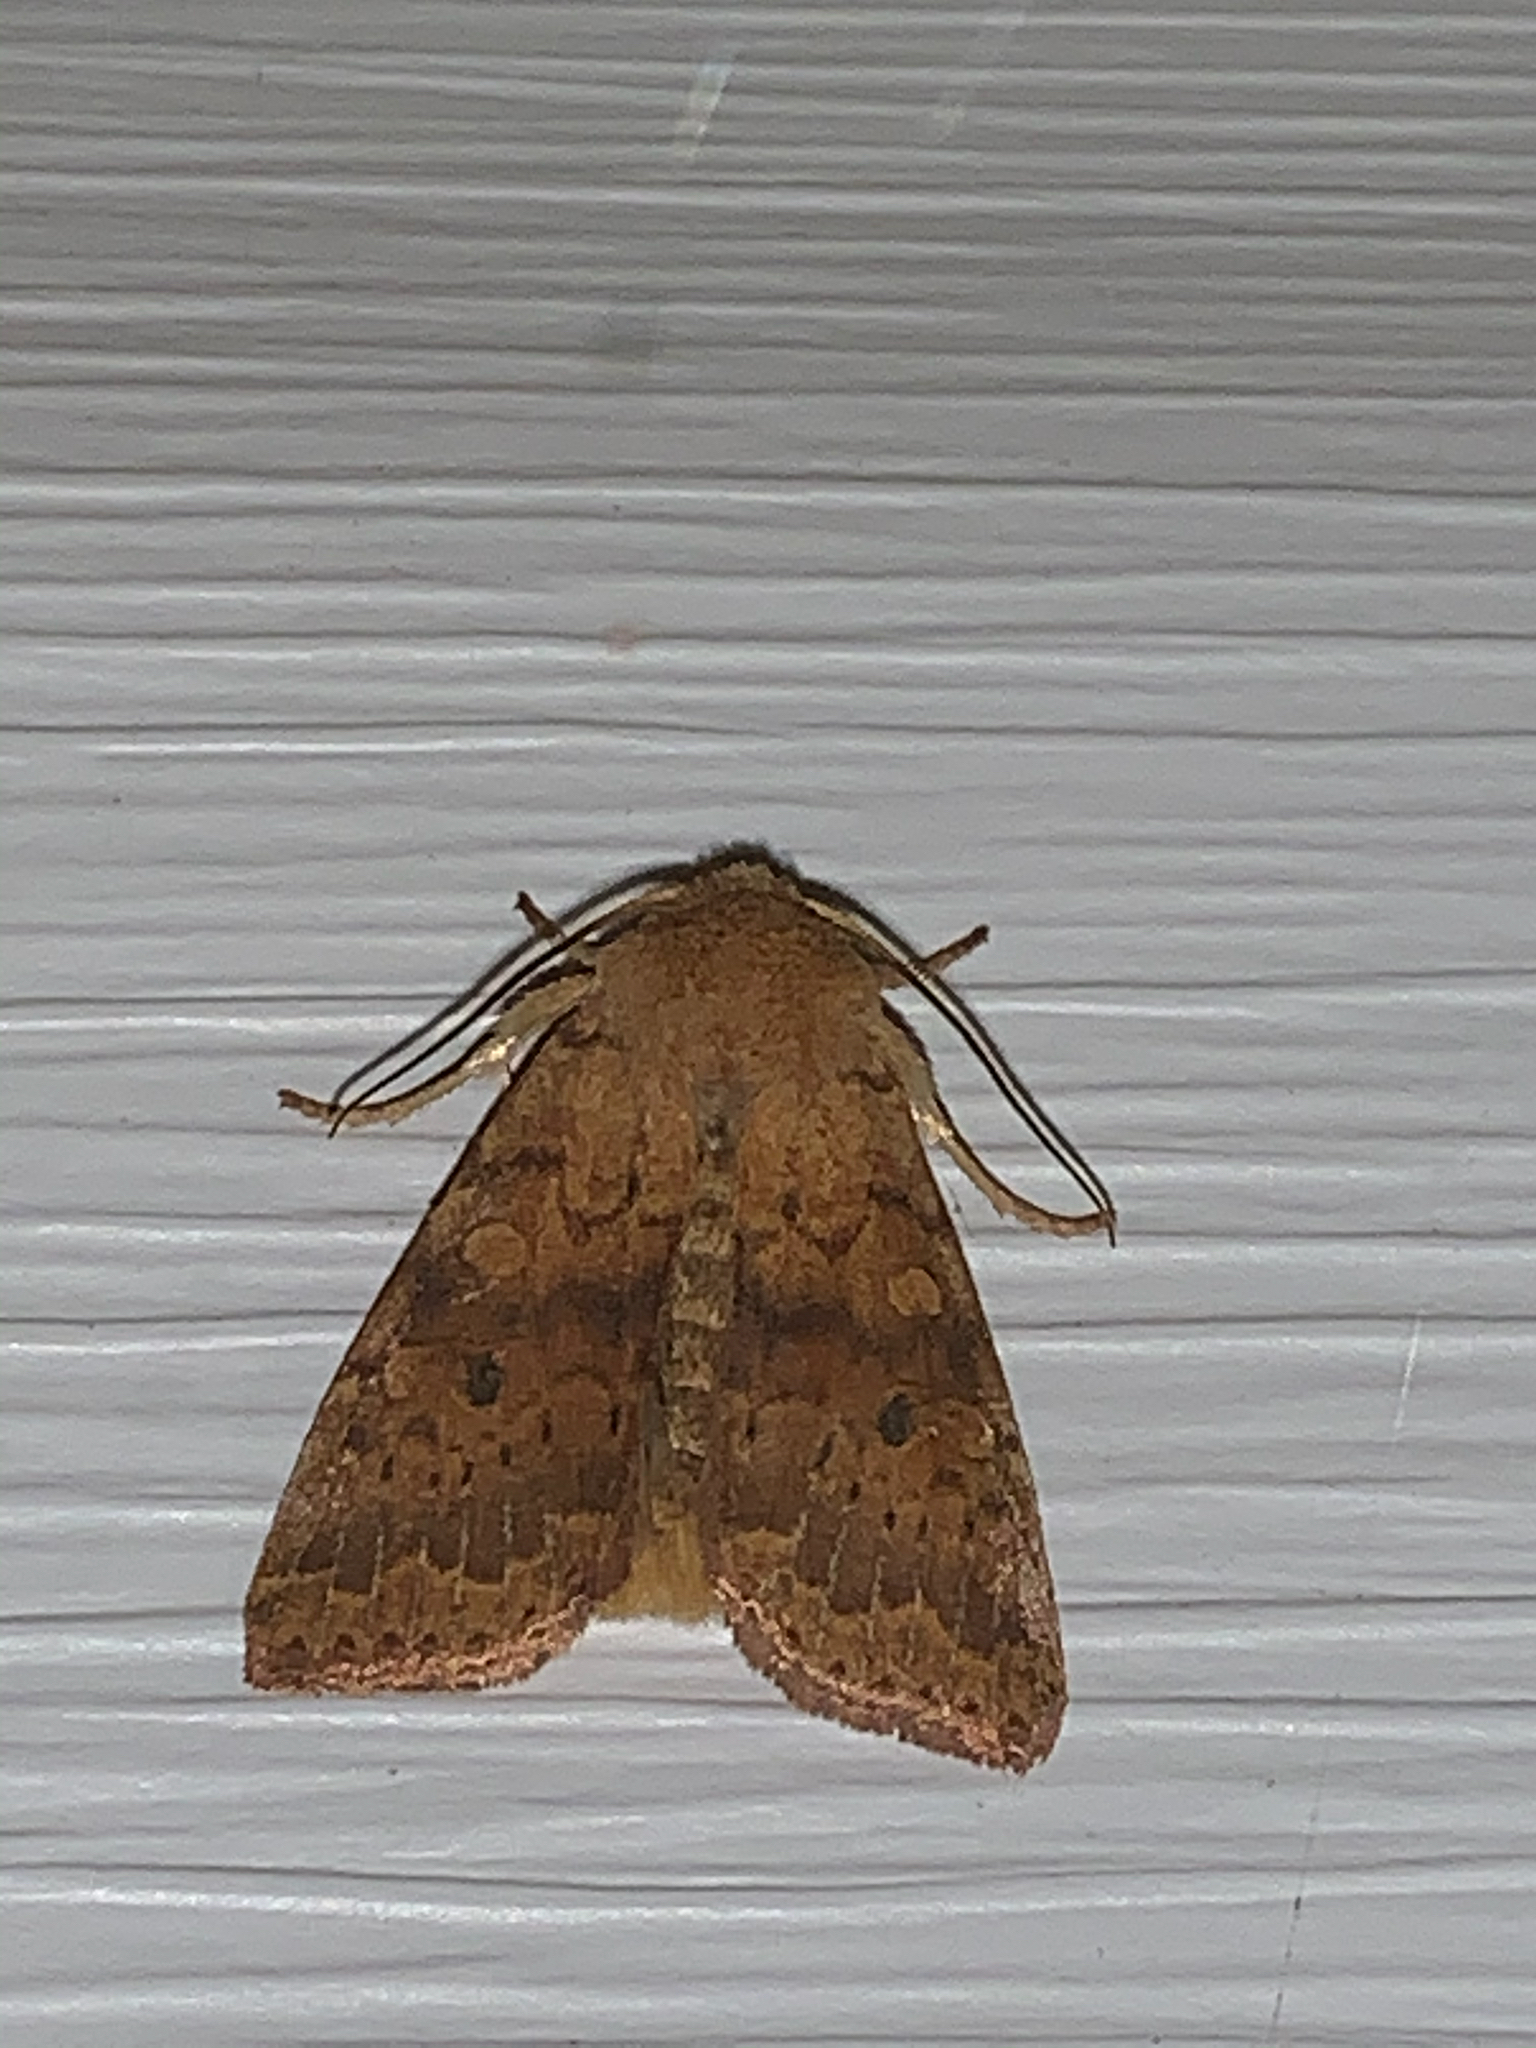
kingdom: Animalia
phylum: Arthropoda
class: Insecta
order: Lepidoptera
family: Noctuidae
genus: Agrochola
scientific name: Agrochola bicolorago
